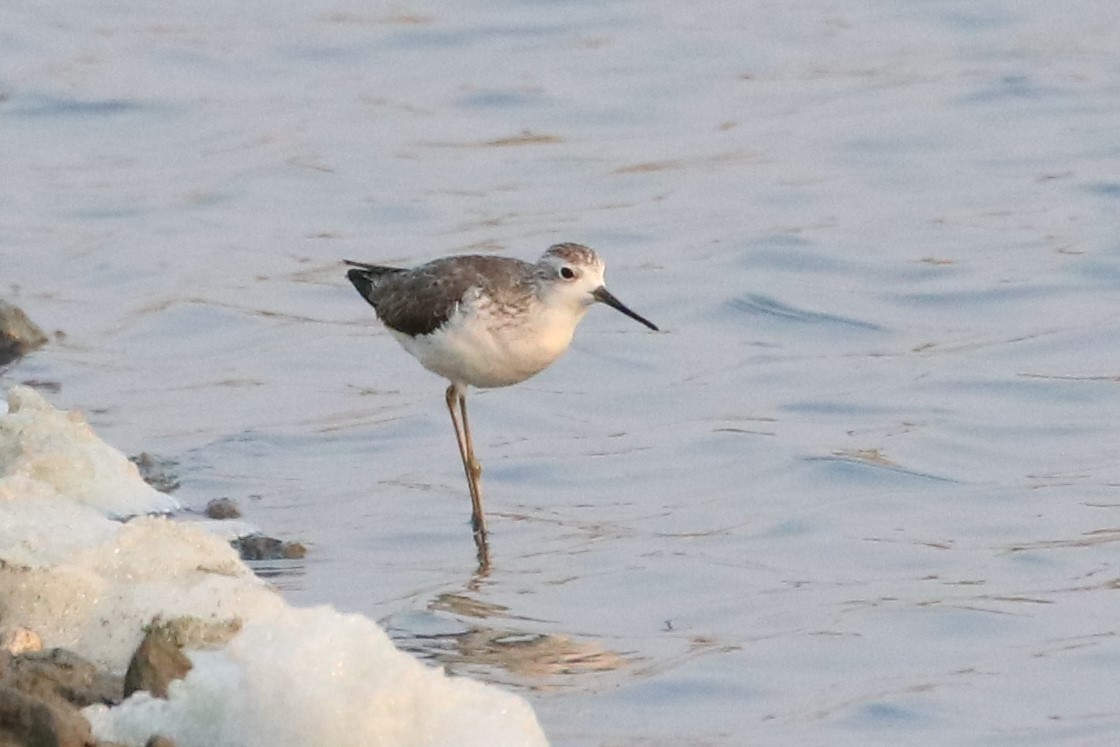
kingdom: Animalia
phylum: Chordata
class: Aves
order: Charadriiformes
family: Scolopacidae
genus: Tringa
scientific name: Tringa stagnatilis
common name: Marsh sandpiper
